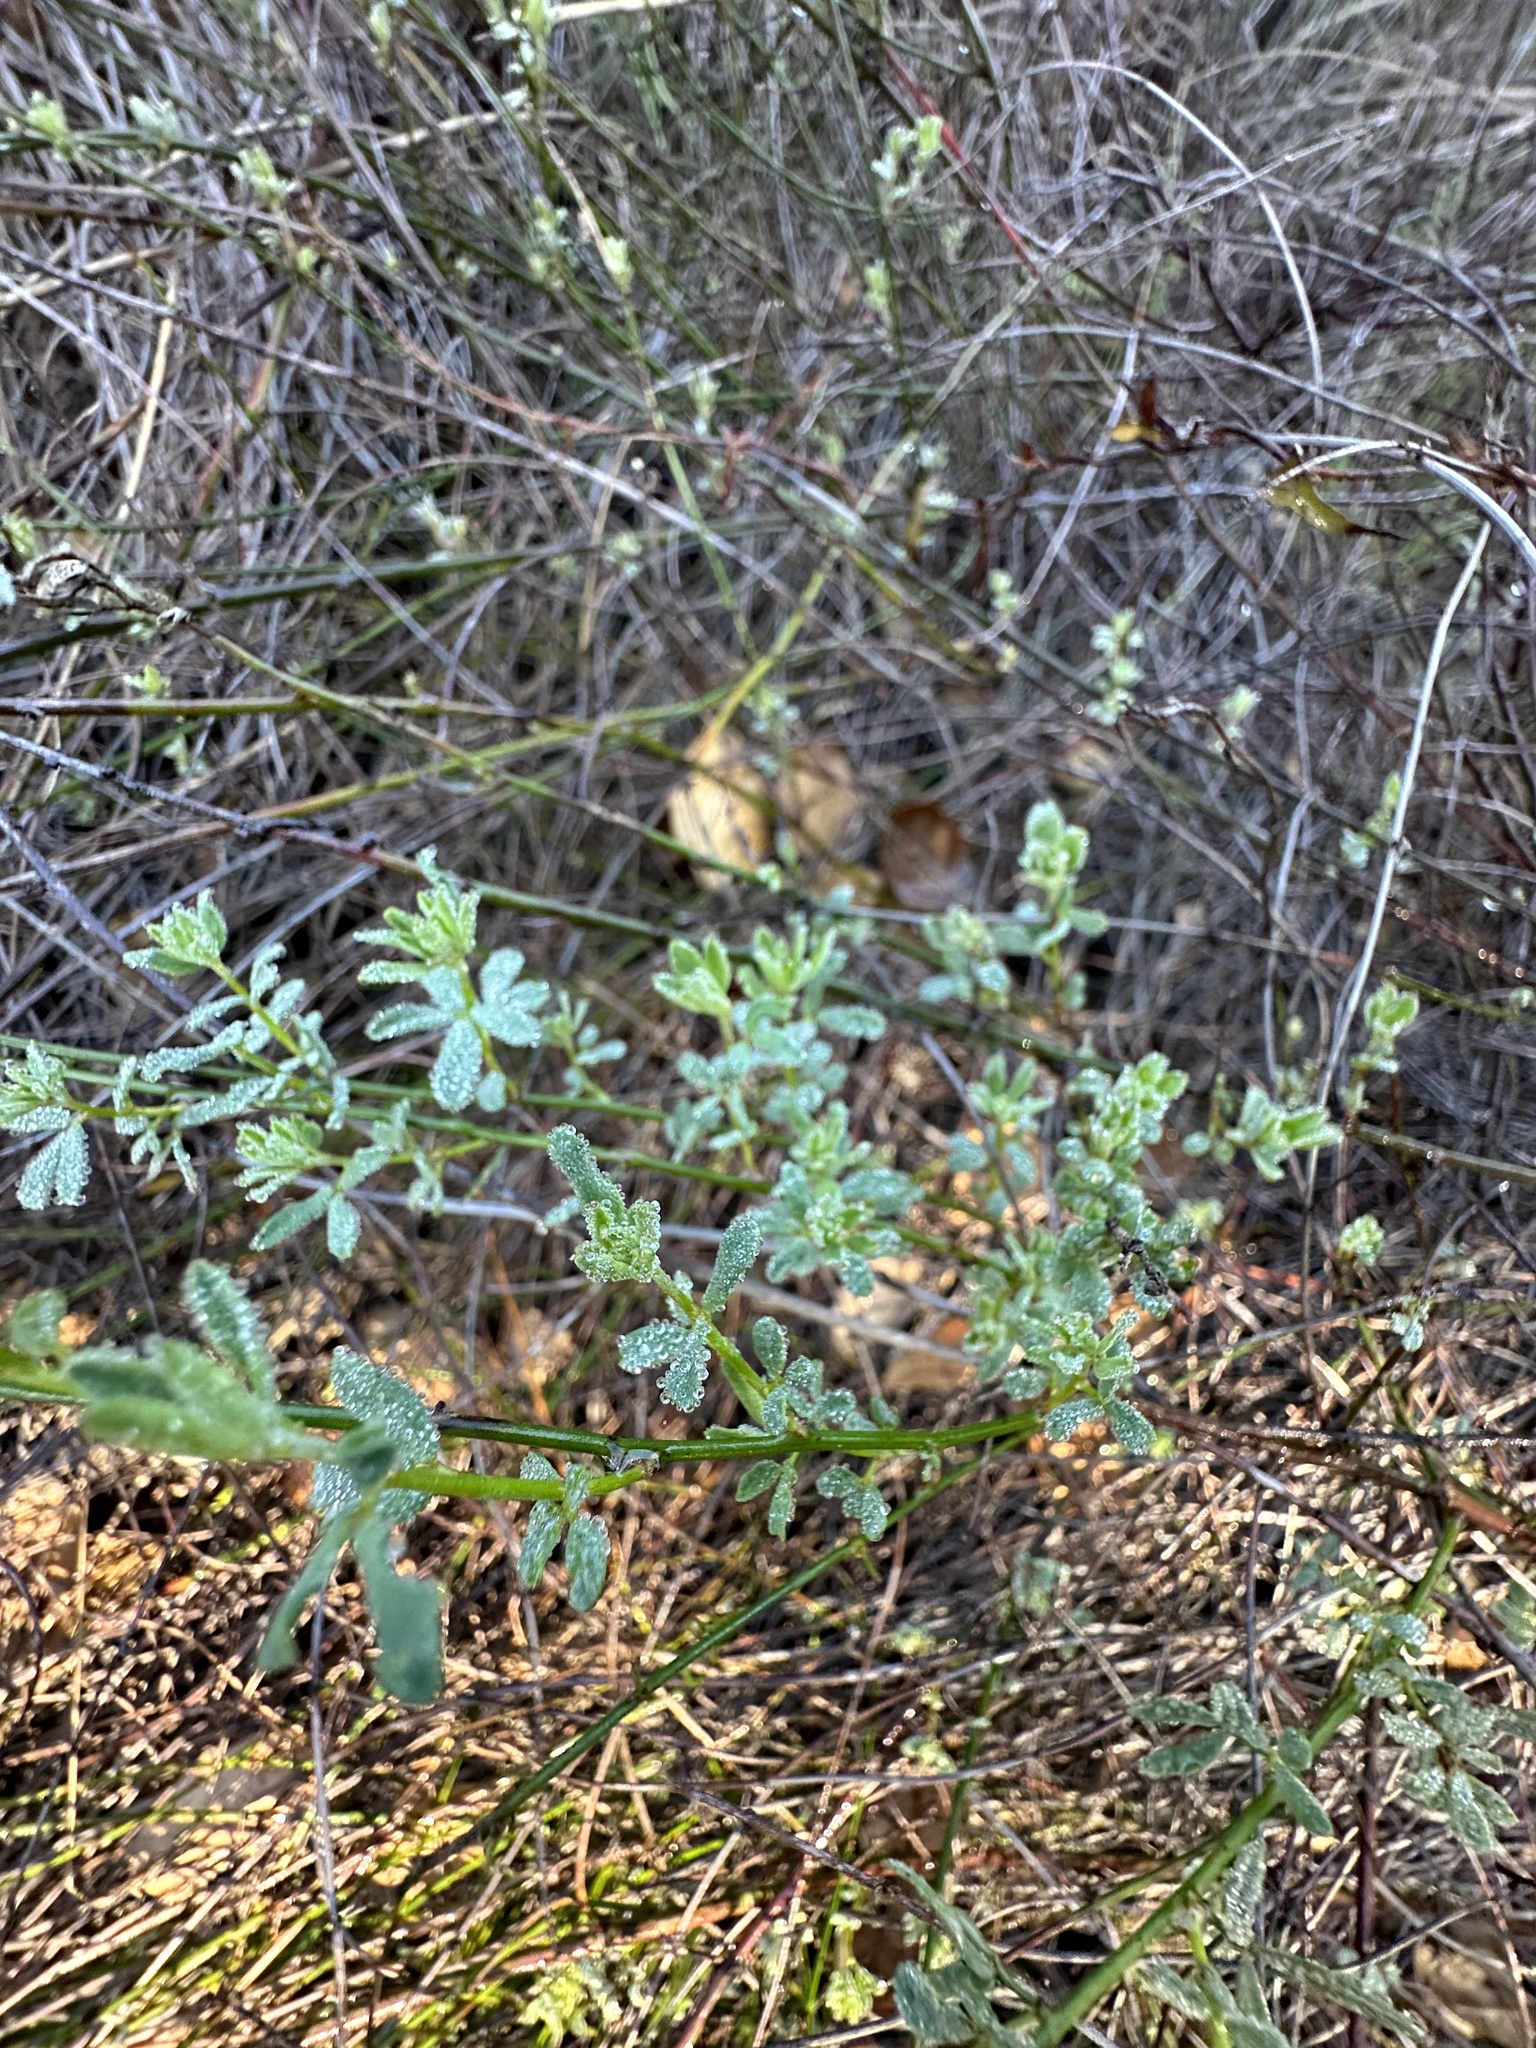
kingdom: Plantae
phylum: Tracheophyta
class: Magnoliopsida
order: Fabales
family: Fabaceae
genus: Acmispon
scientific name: Acmispon glaber
